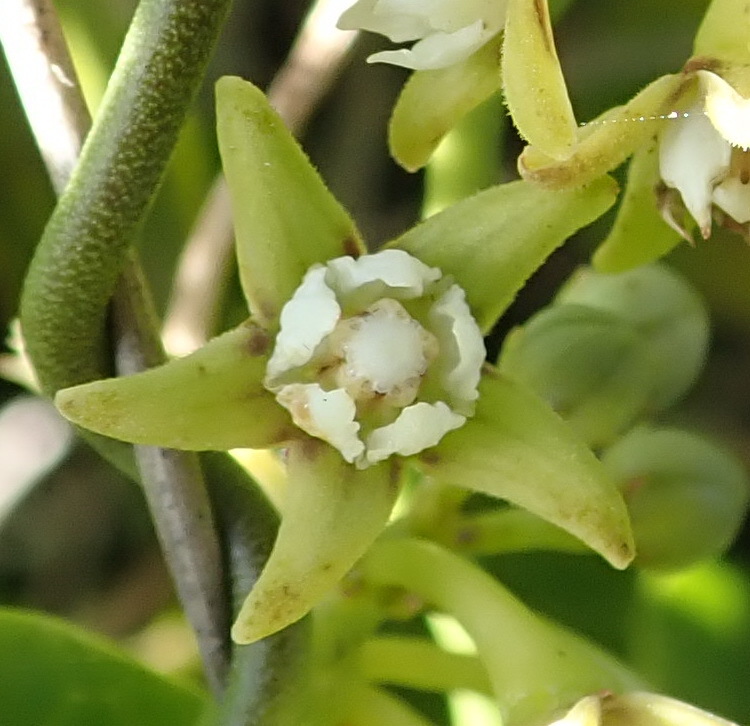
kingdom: Plantae
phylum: Tracheophyta
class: Magnoliopsida
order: Gentianales
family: Apocynaceae
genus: Cynanchum
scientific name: Cynanchum obtusifolium
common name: Monkey-rope
